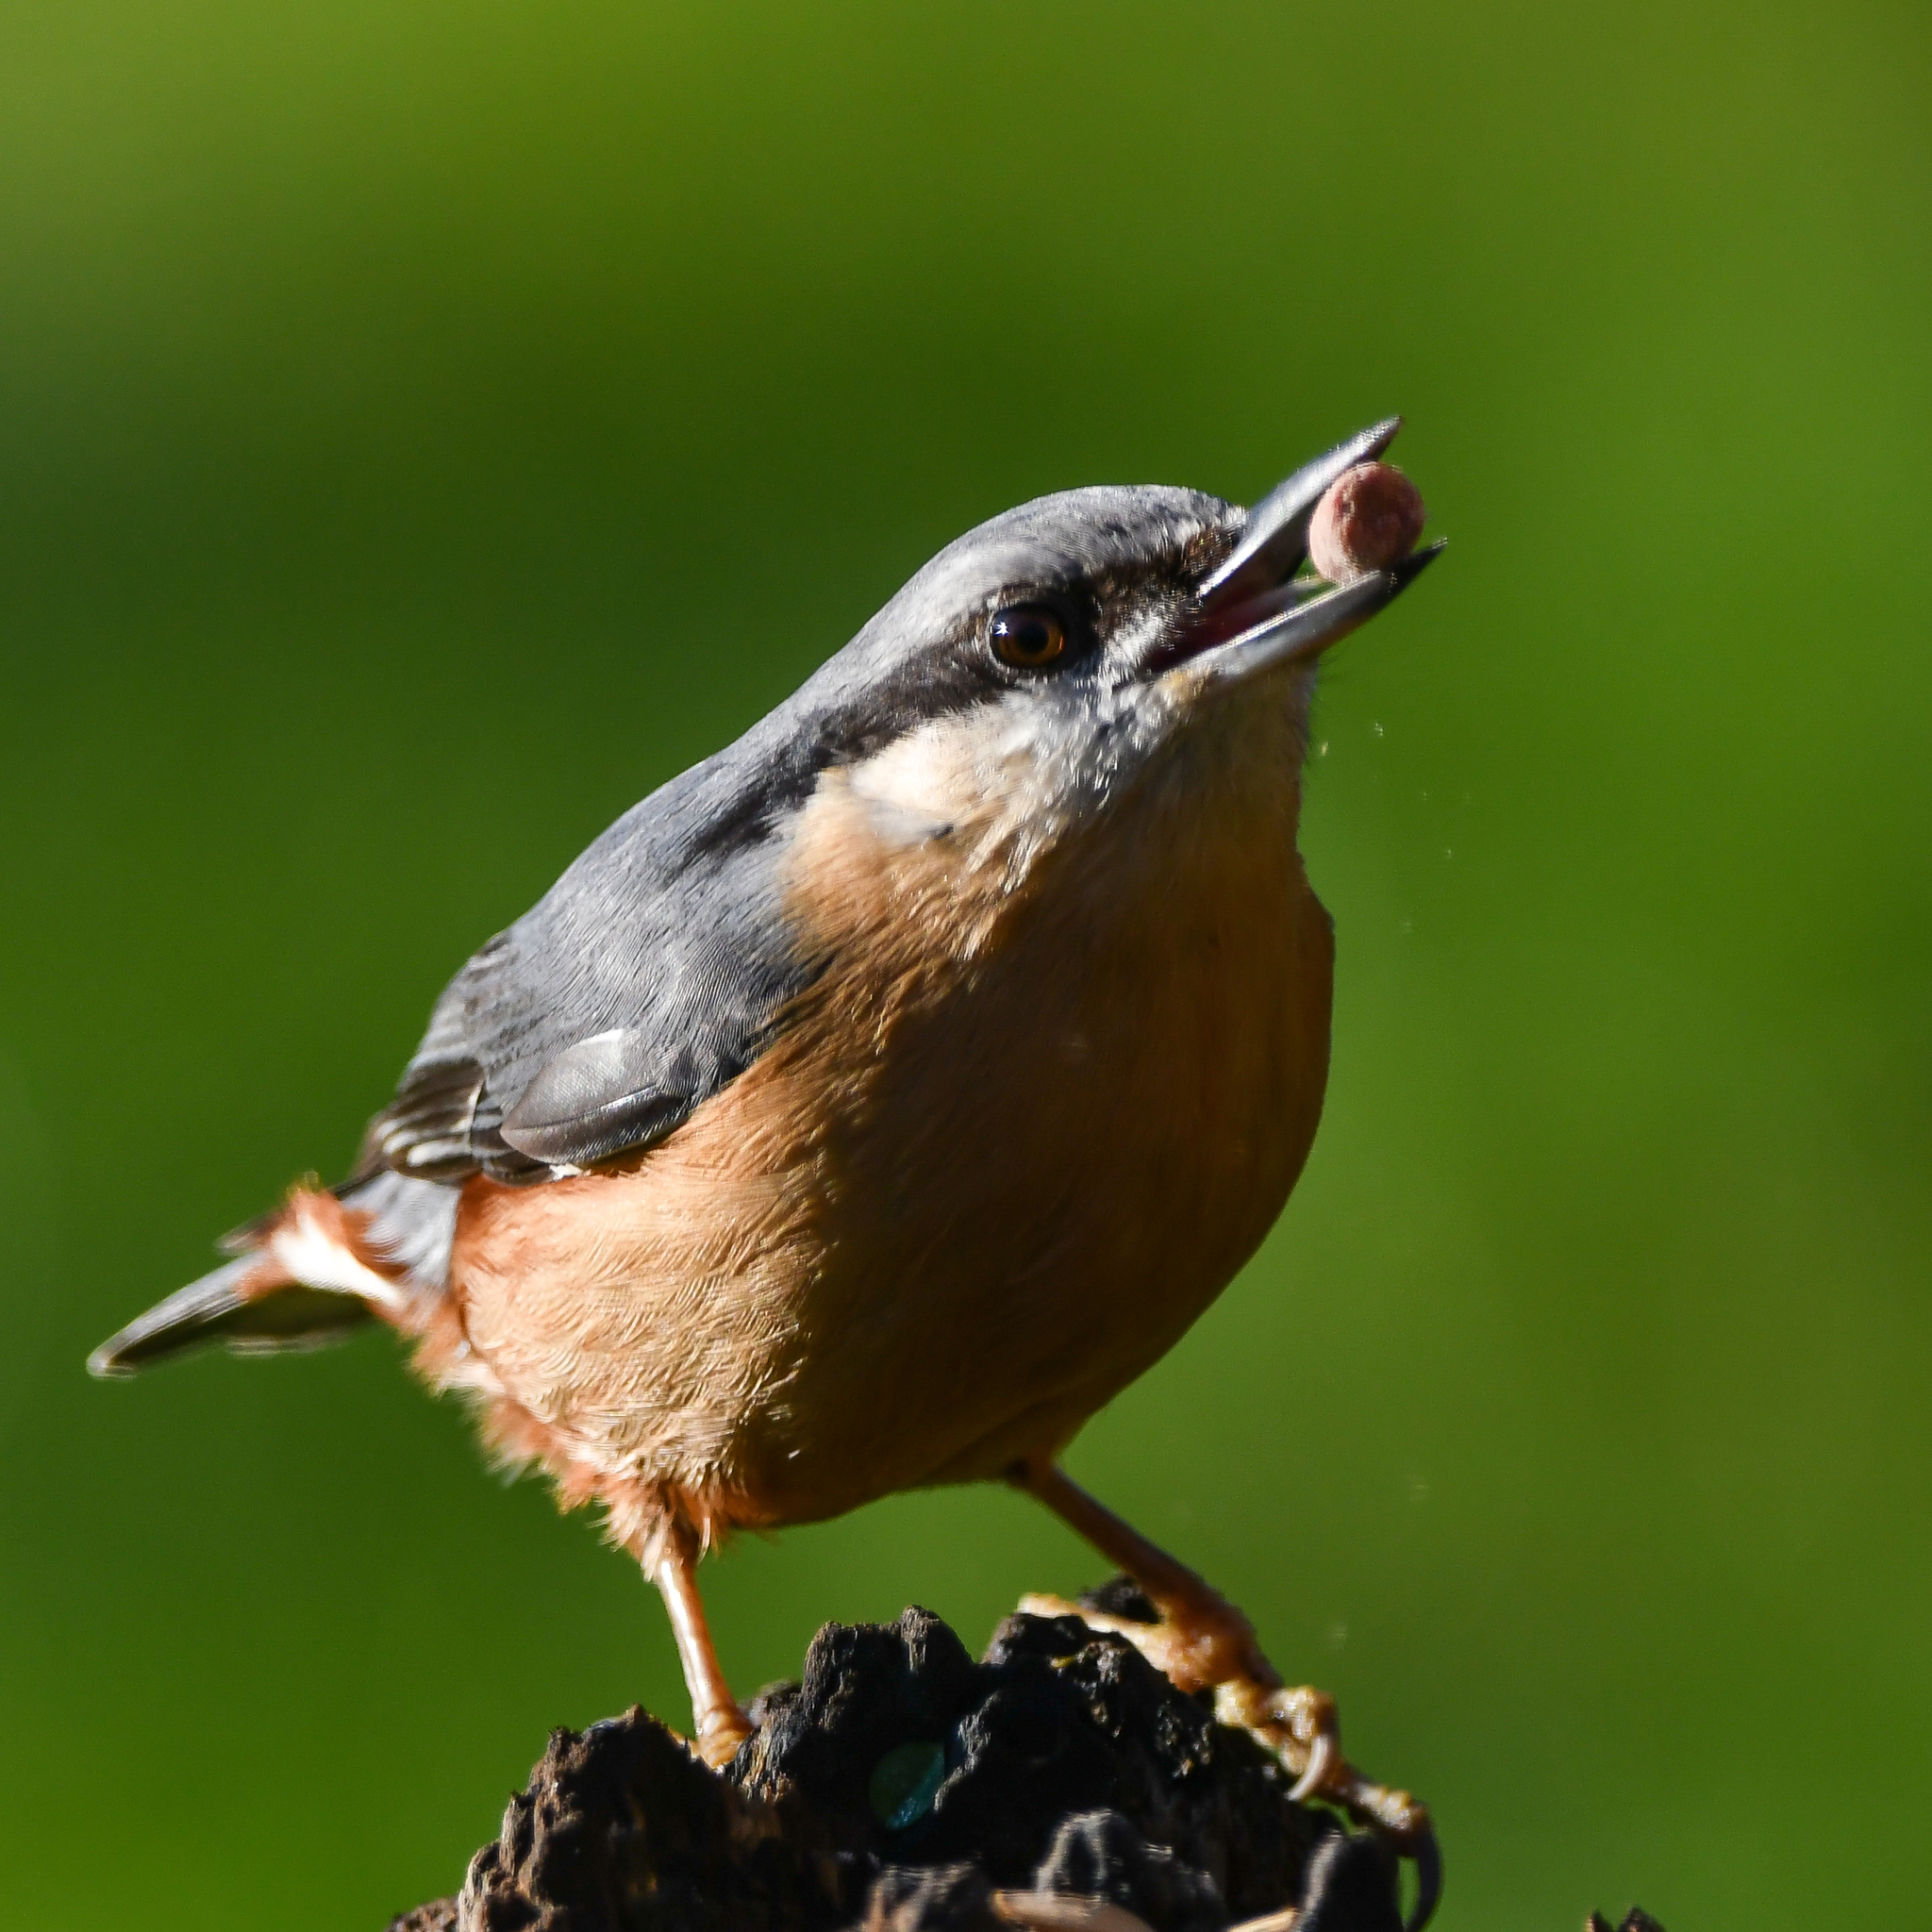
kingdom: Animalia
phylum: Chordata
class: Aves
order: Passeriformes
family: Sittidae
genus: Sitta
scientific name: Sitta europaea
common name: Eurasian nuthatch
